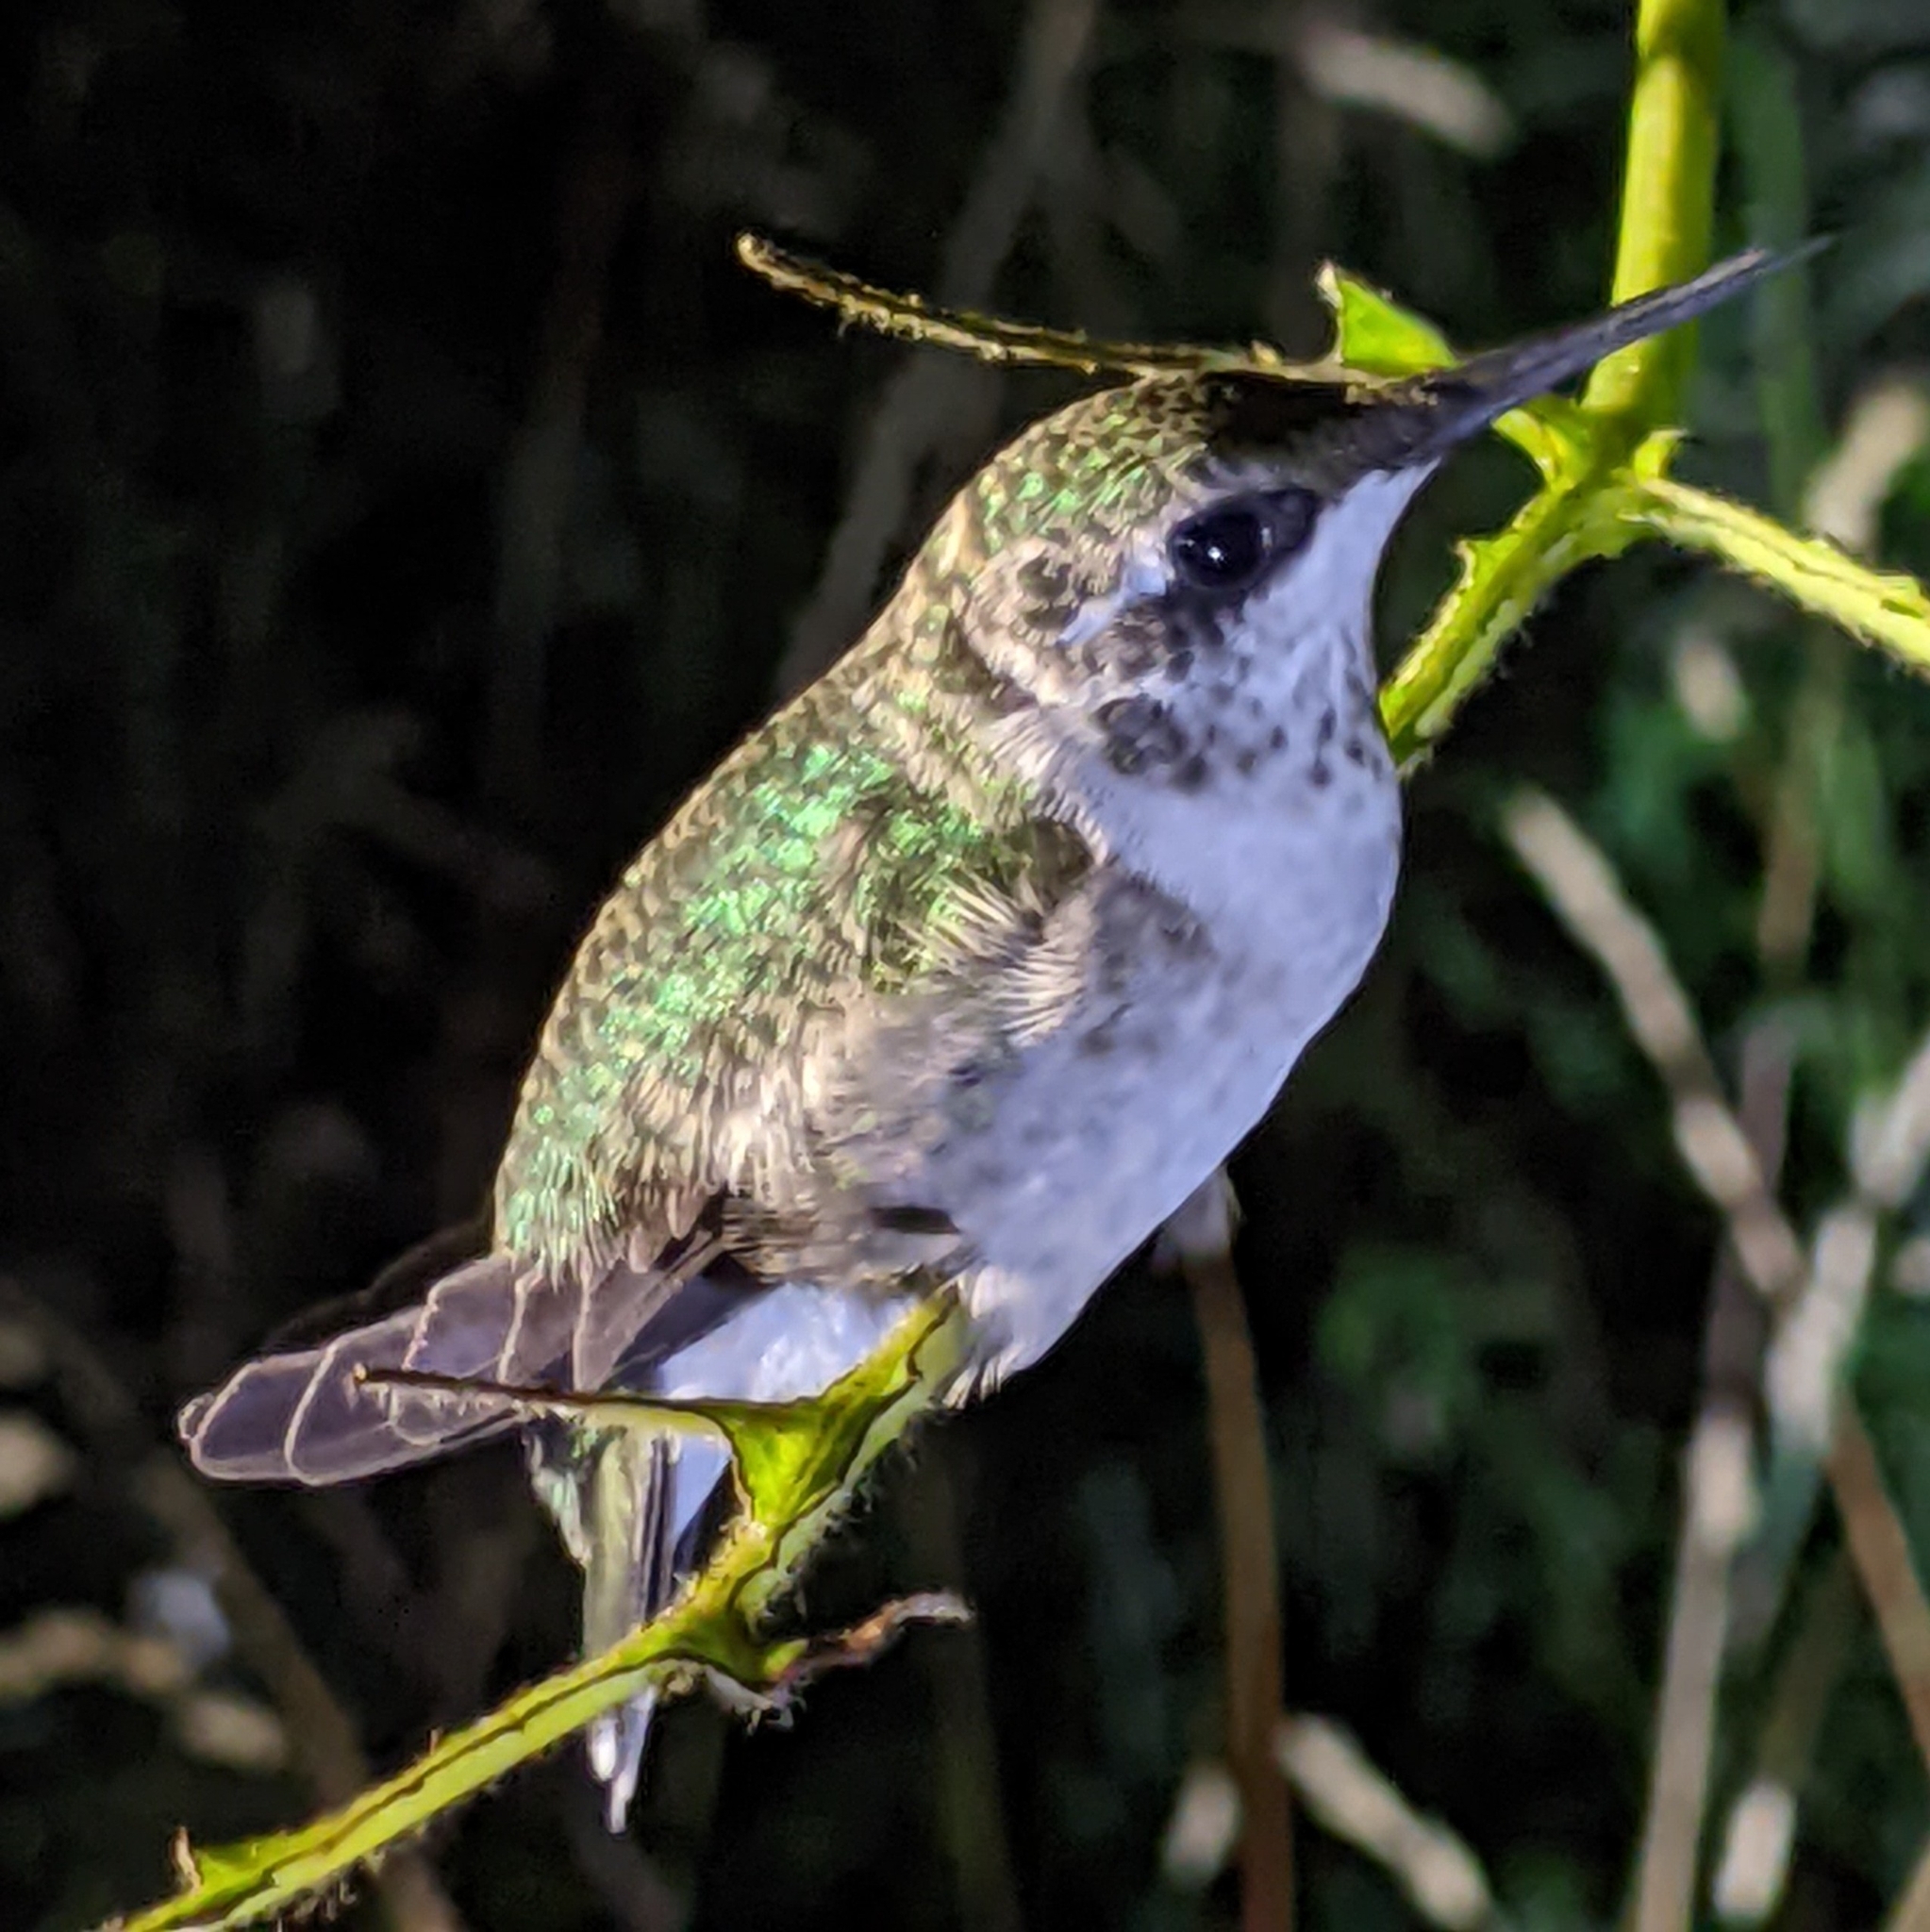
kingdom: Animalia
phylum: Chordata
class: Aves
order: Apodiformes
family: Trochilidae
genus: Archilochus
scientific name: Archilochus colubris
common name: Ruby-throated hummingbird
